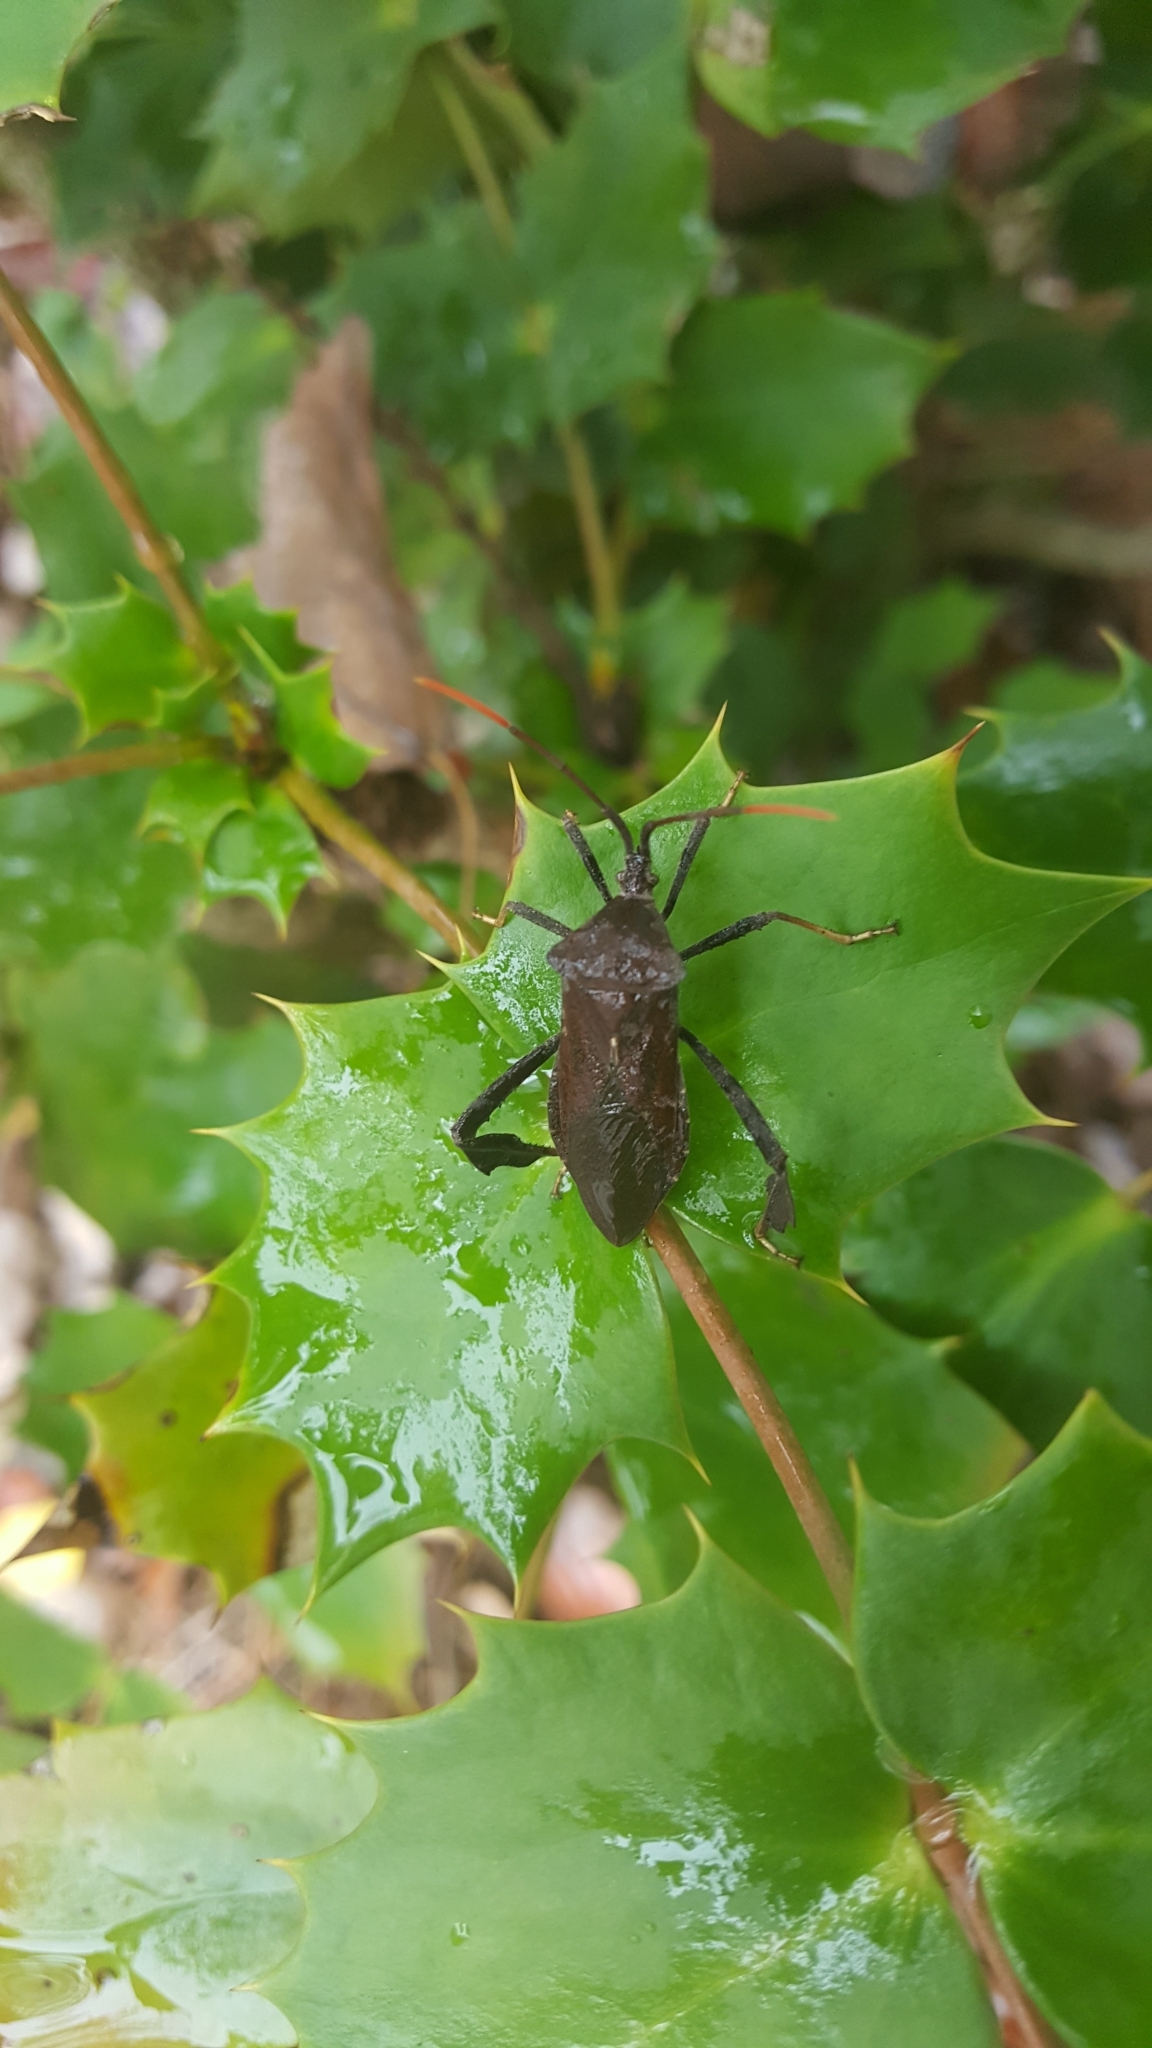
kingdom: Animalia
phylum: Arthropoda
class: Insecta
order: Hemiptera
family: Coreidae
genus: Acanthocephala
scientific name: Acanthocephala terminalis
